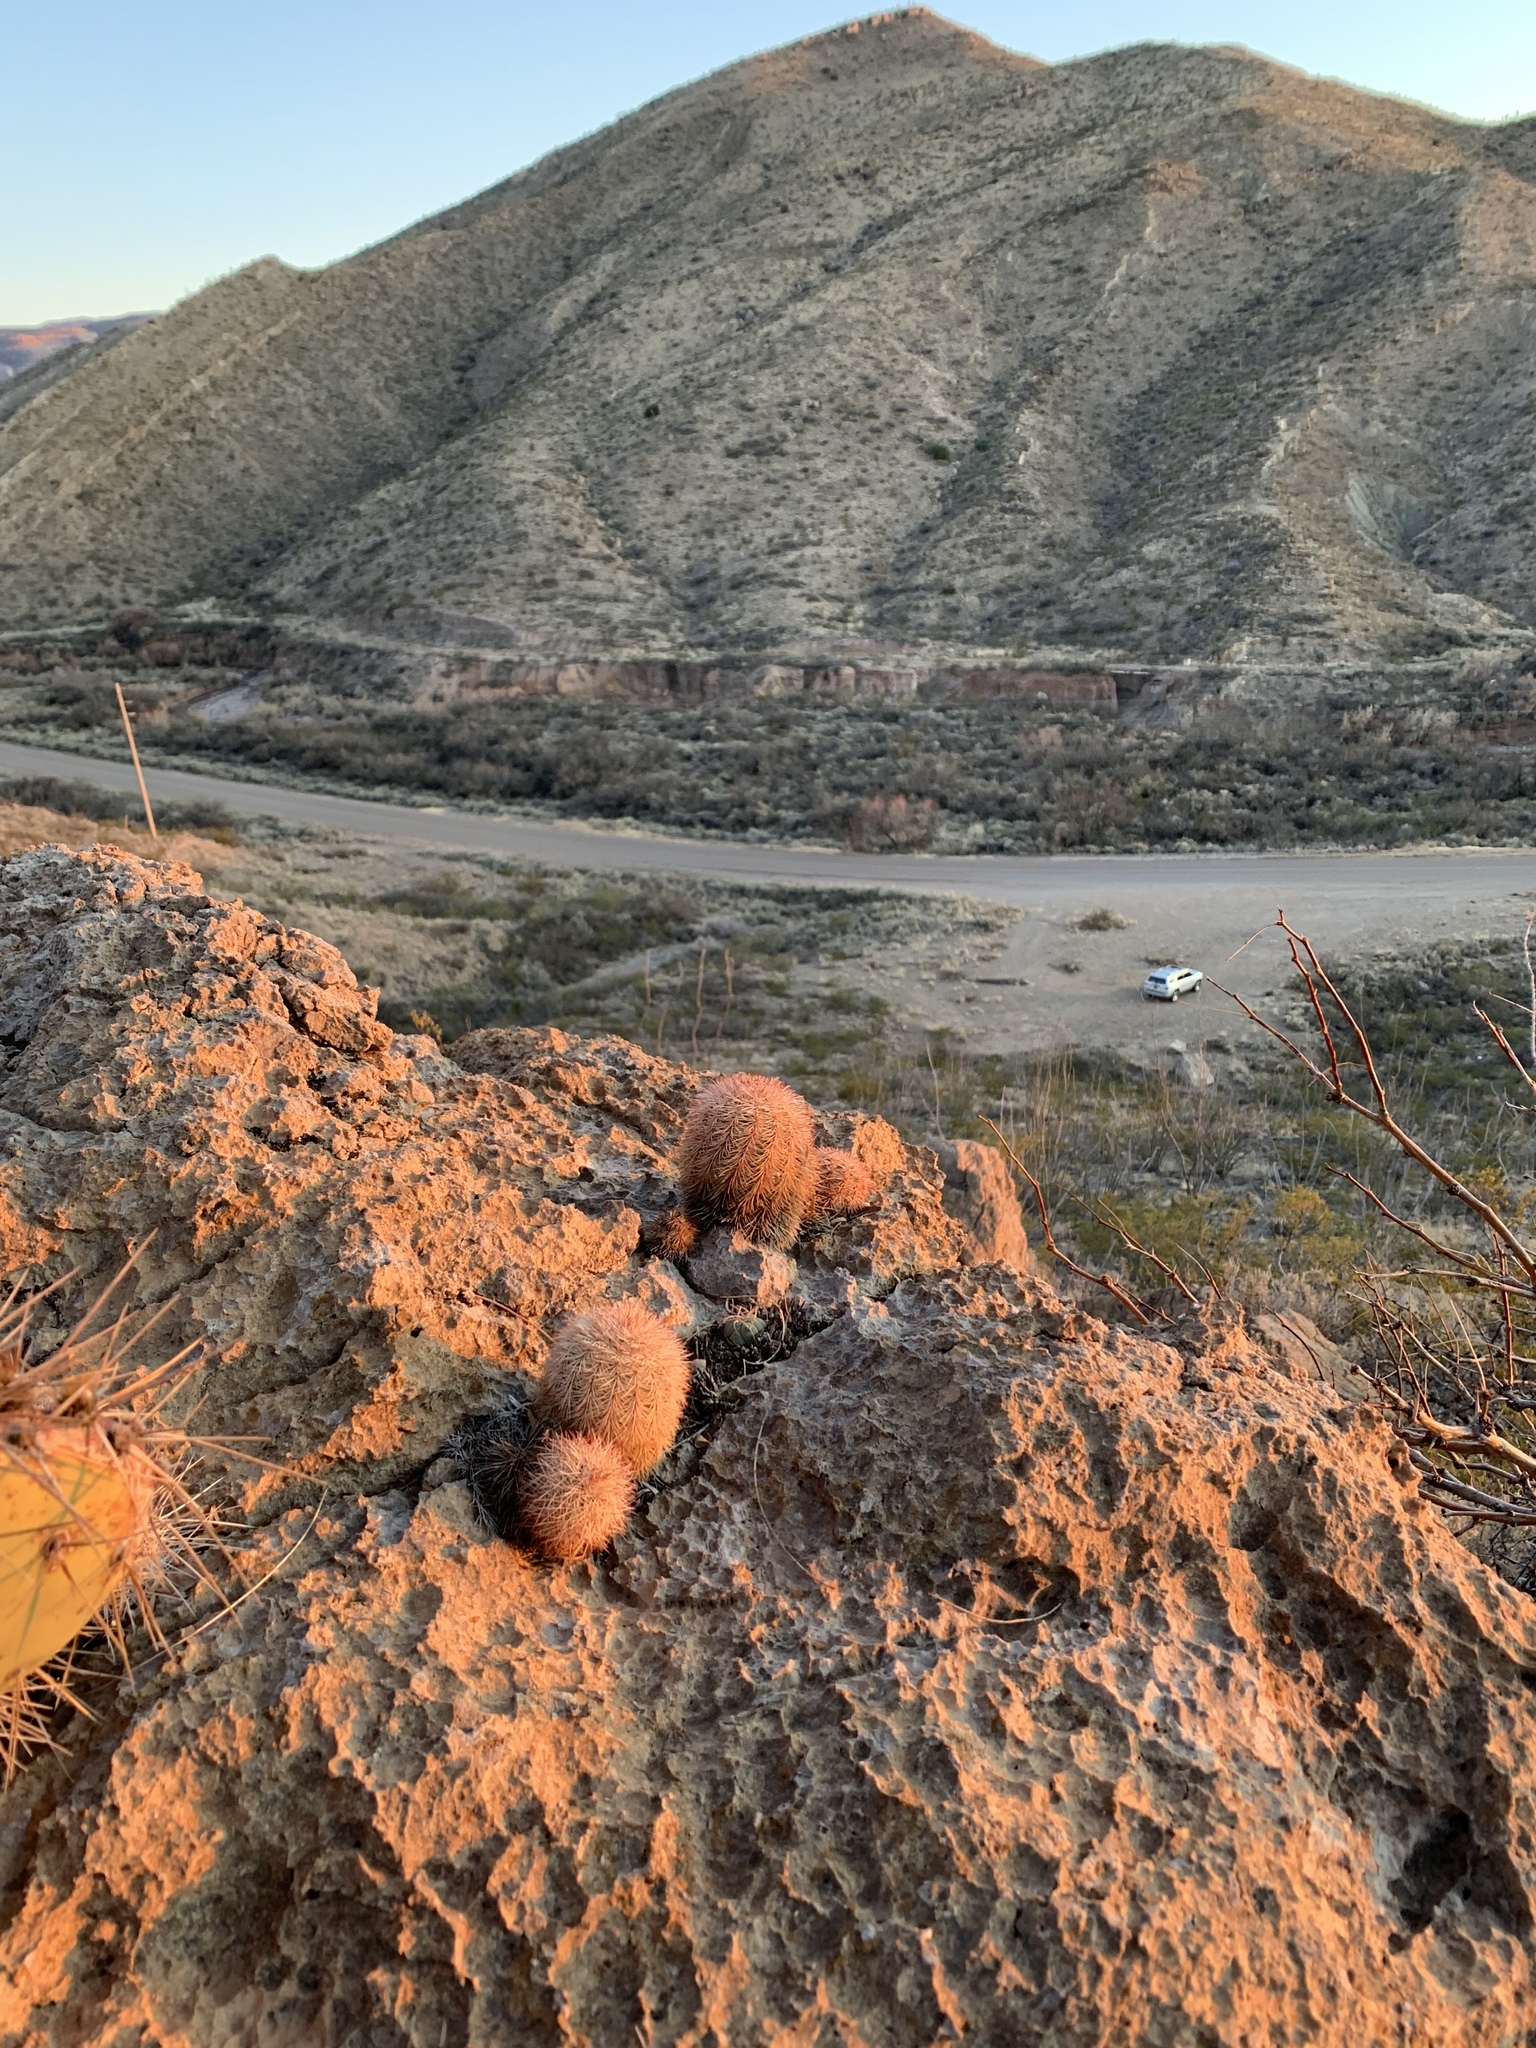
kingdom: Plantae
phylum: Tracheophyta
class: Magnoliopsida
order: Caryophyllales
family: Cactaceae
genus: Echinocereus
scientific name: Echinocereus dasyacanthus
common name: Spiny hedgehog cactus
